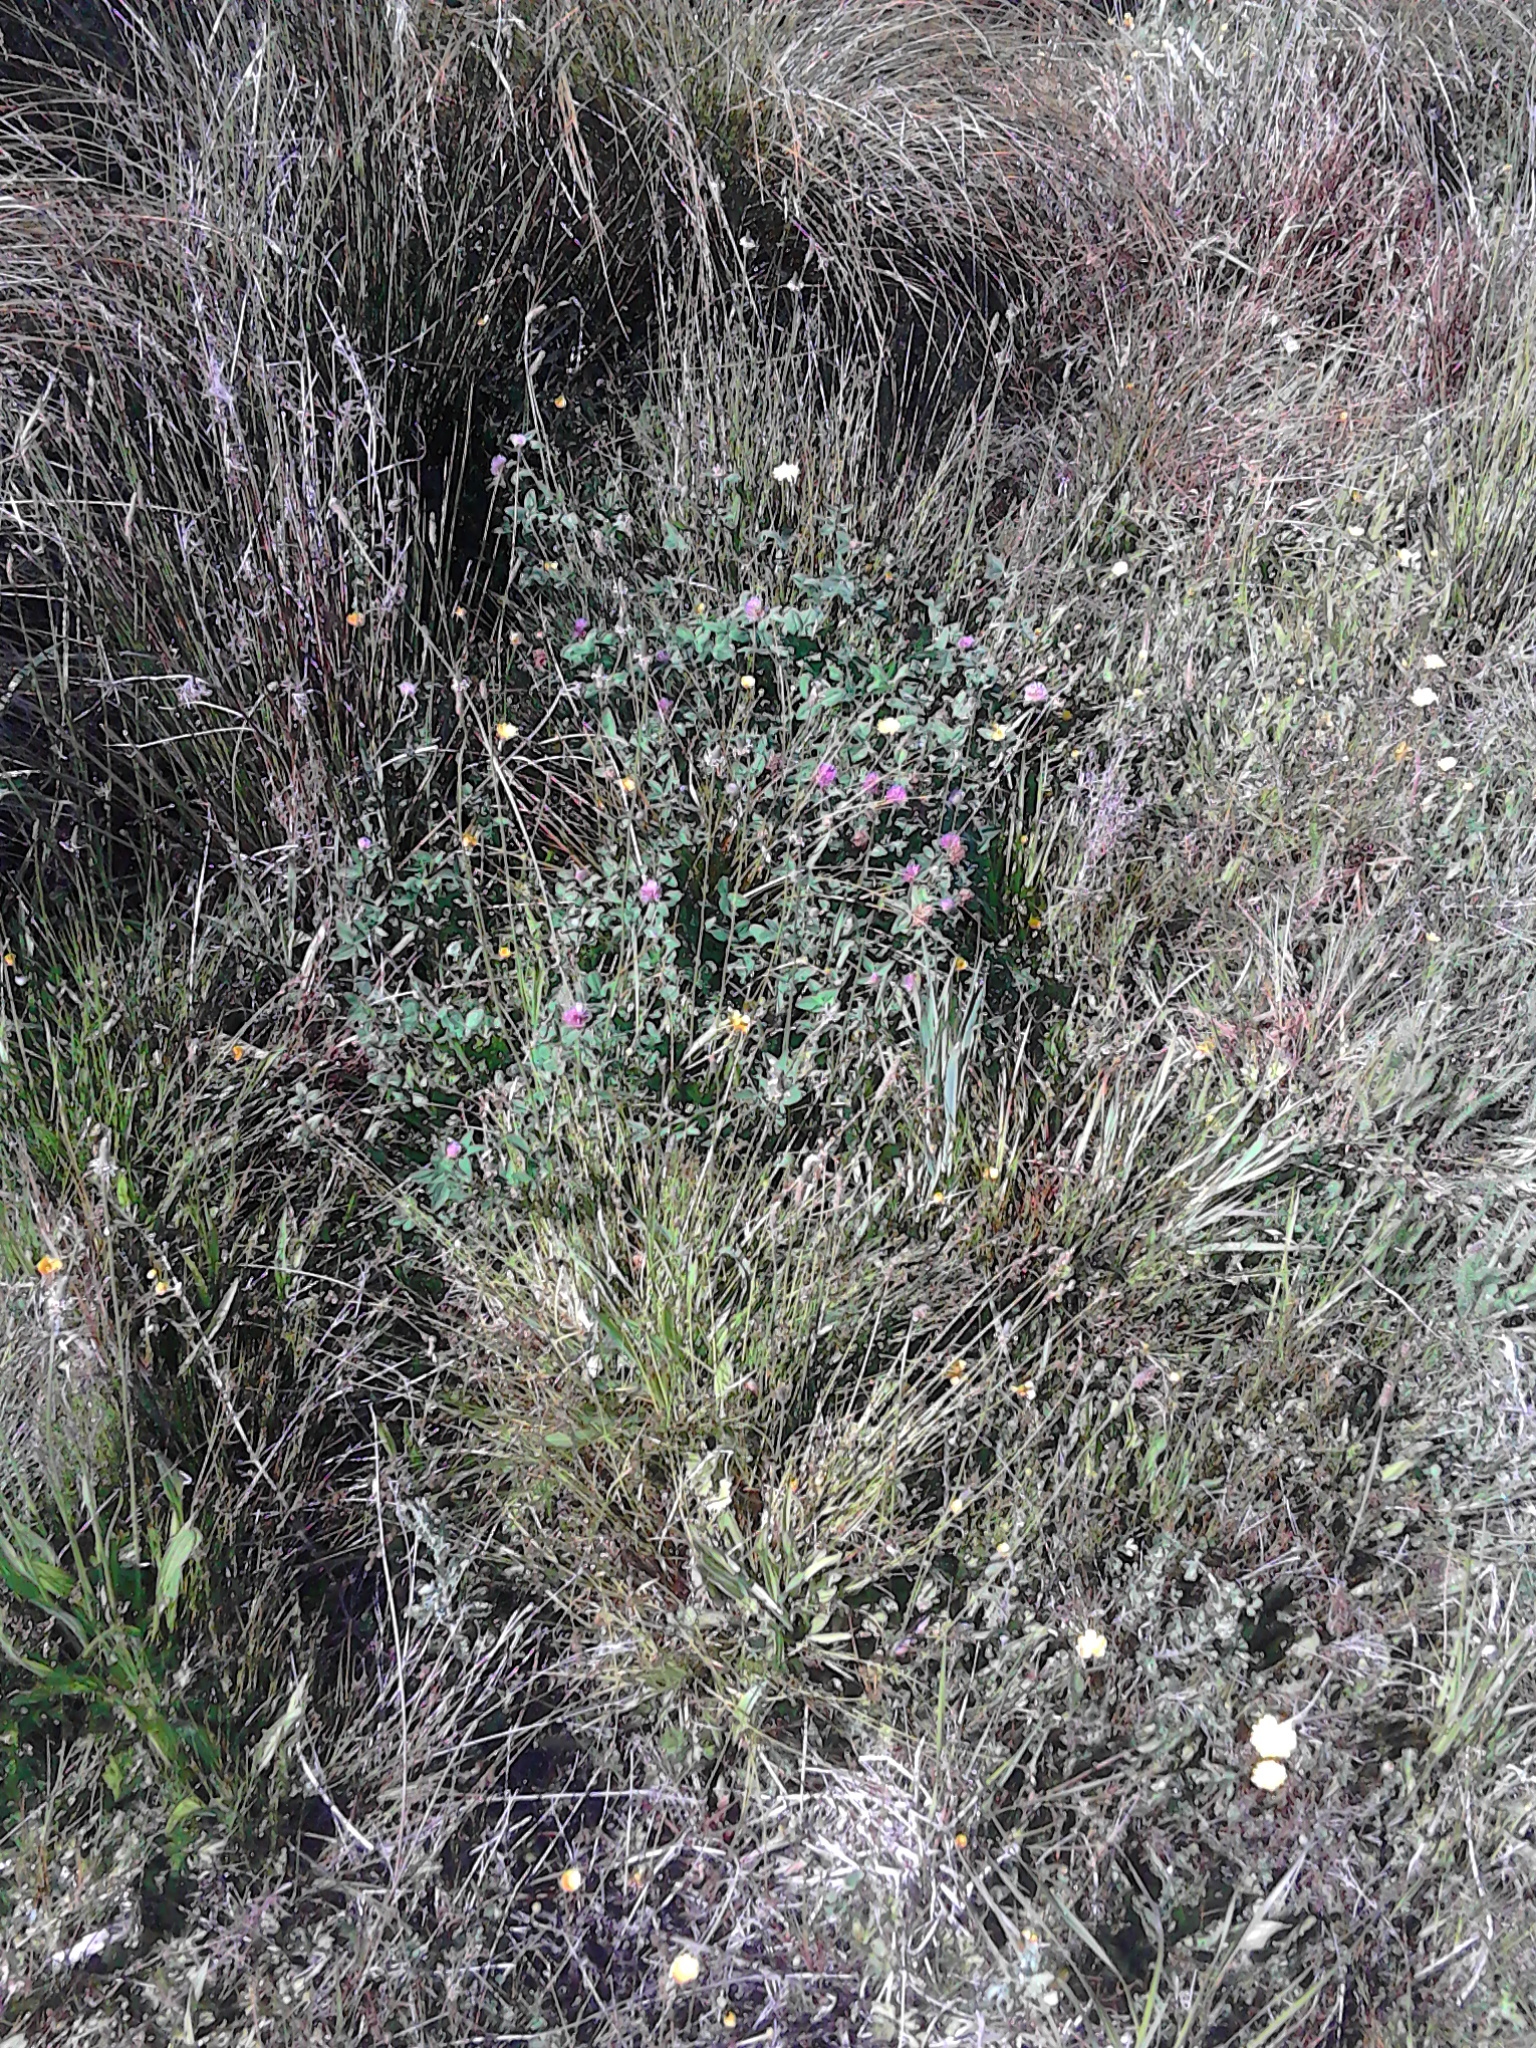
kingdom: Plantae
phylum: Tracheophyta
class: Magnoliopsida
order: Fabales
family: Fabaceae
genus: Trifolium
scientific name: Trifolium pratense
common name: Red clover
